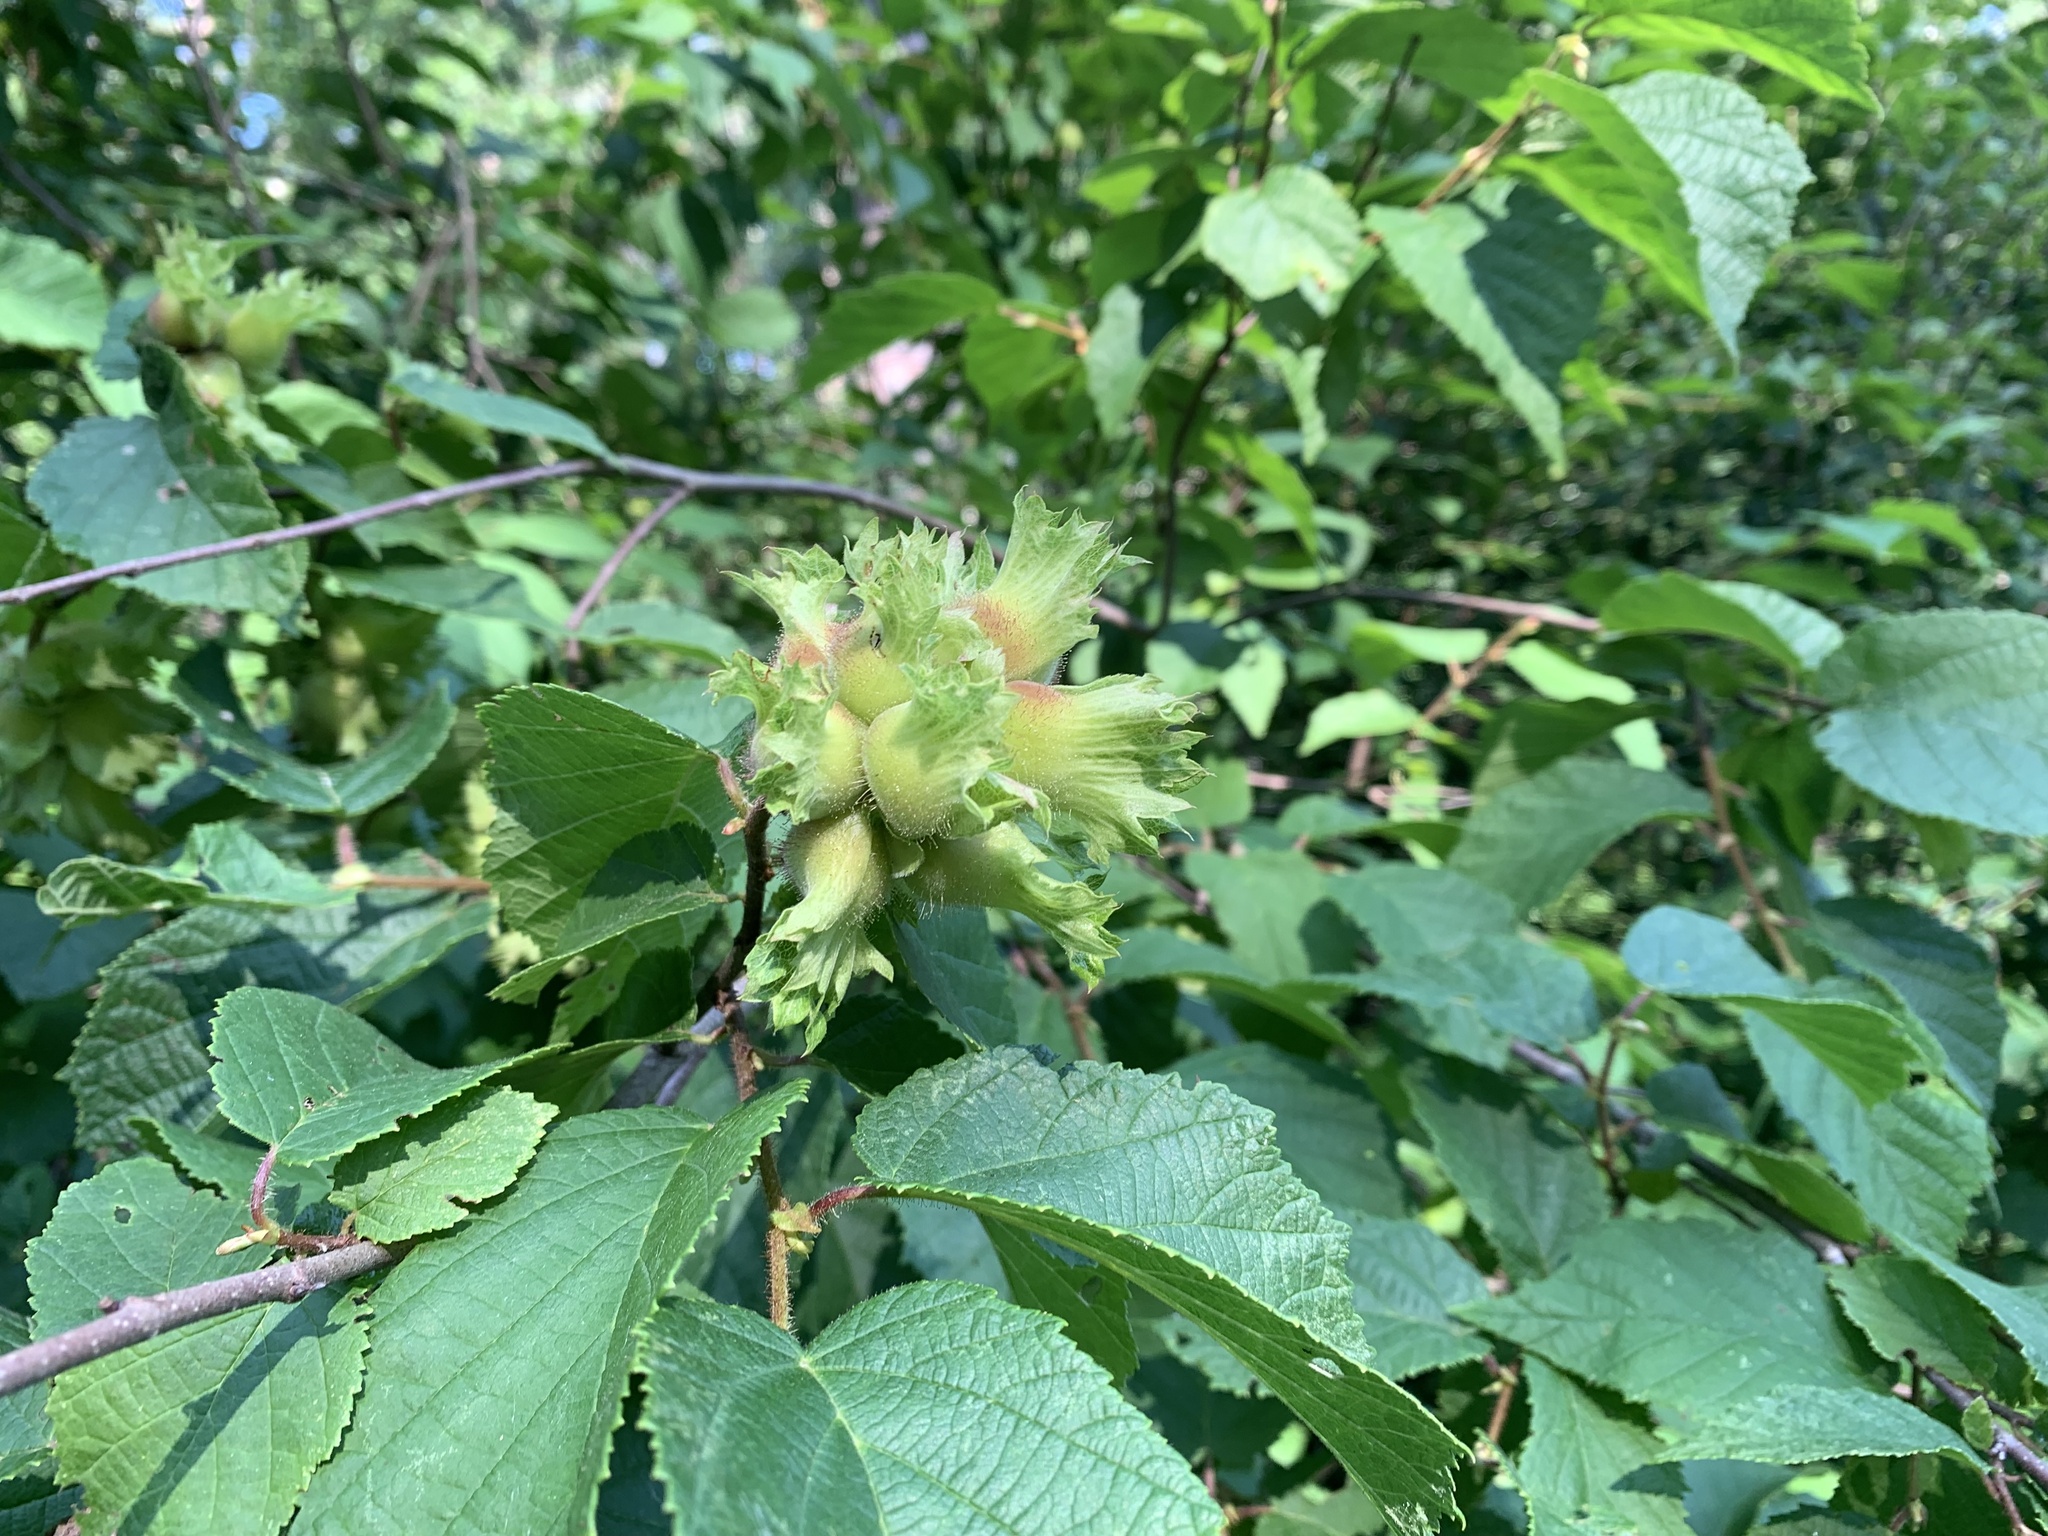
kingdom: Plantae
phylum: Tracheophyta
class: Magnoliopsida
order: Fagales
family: Betulaceae
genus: Corylus
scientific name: Corylus americana
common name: American hazel
